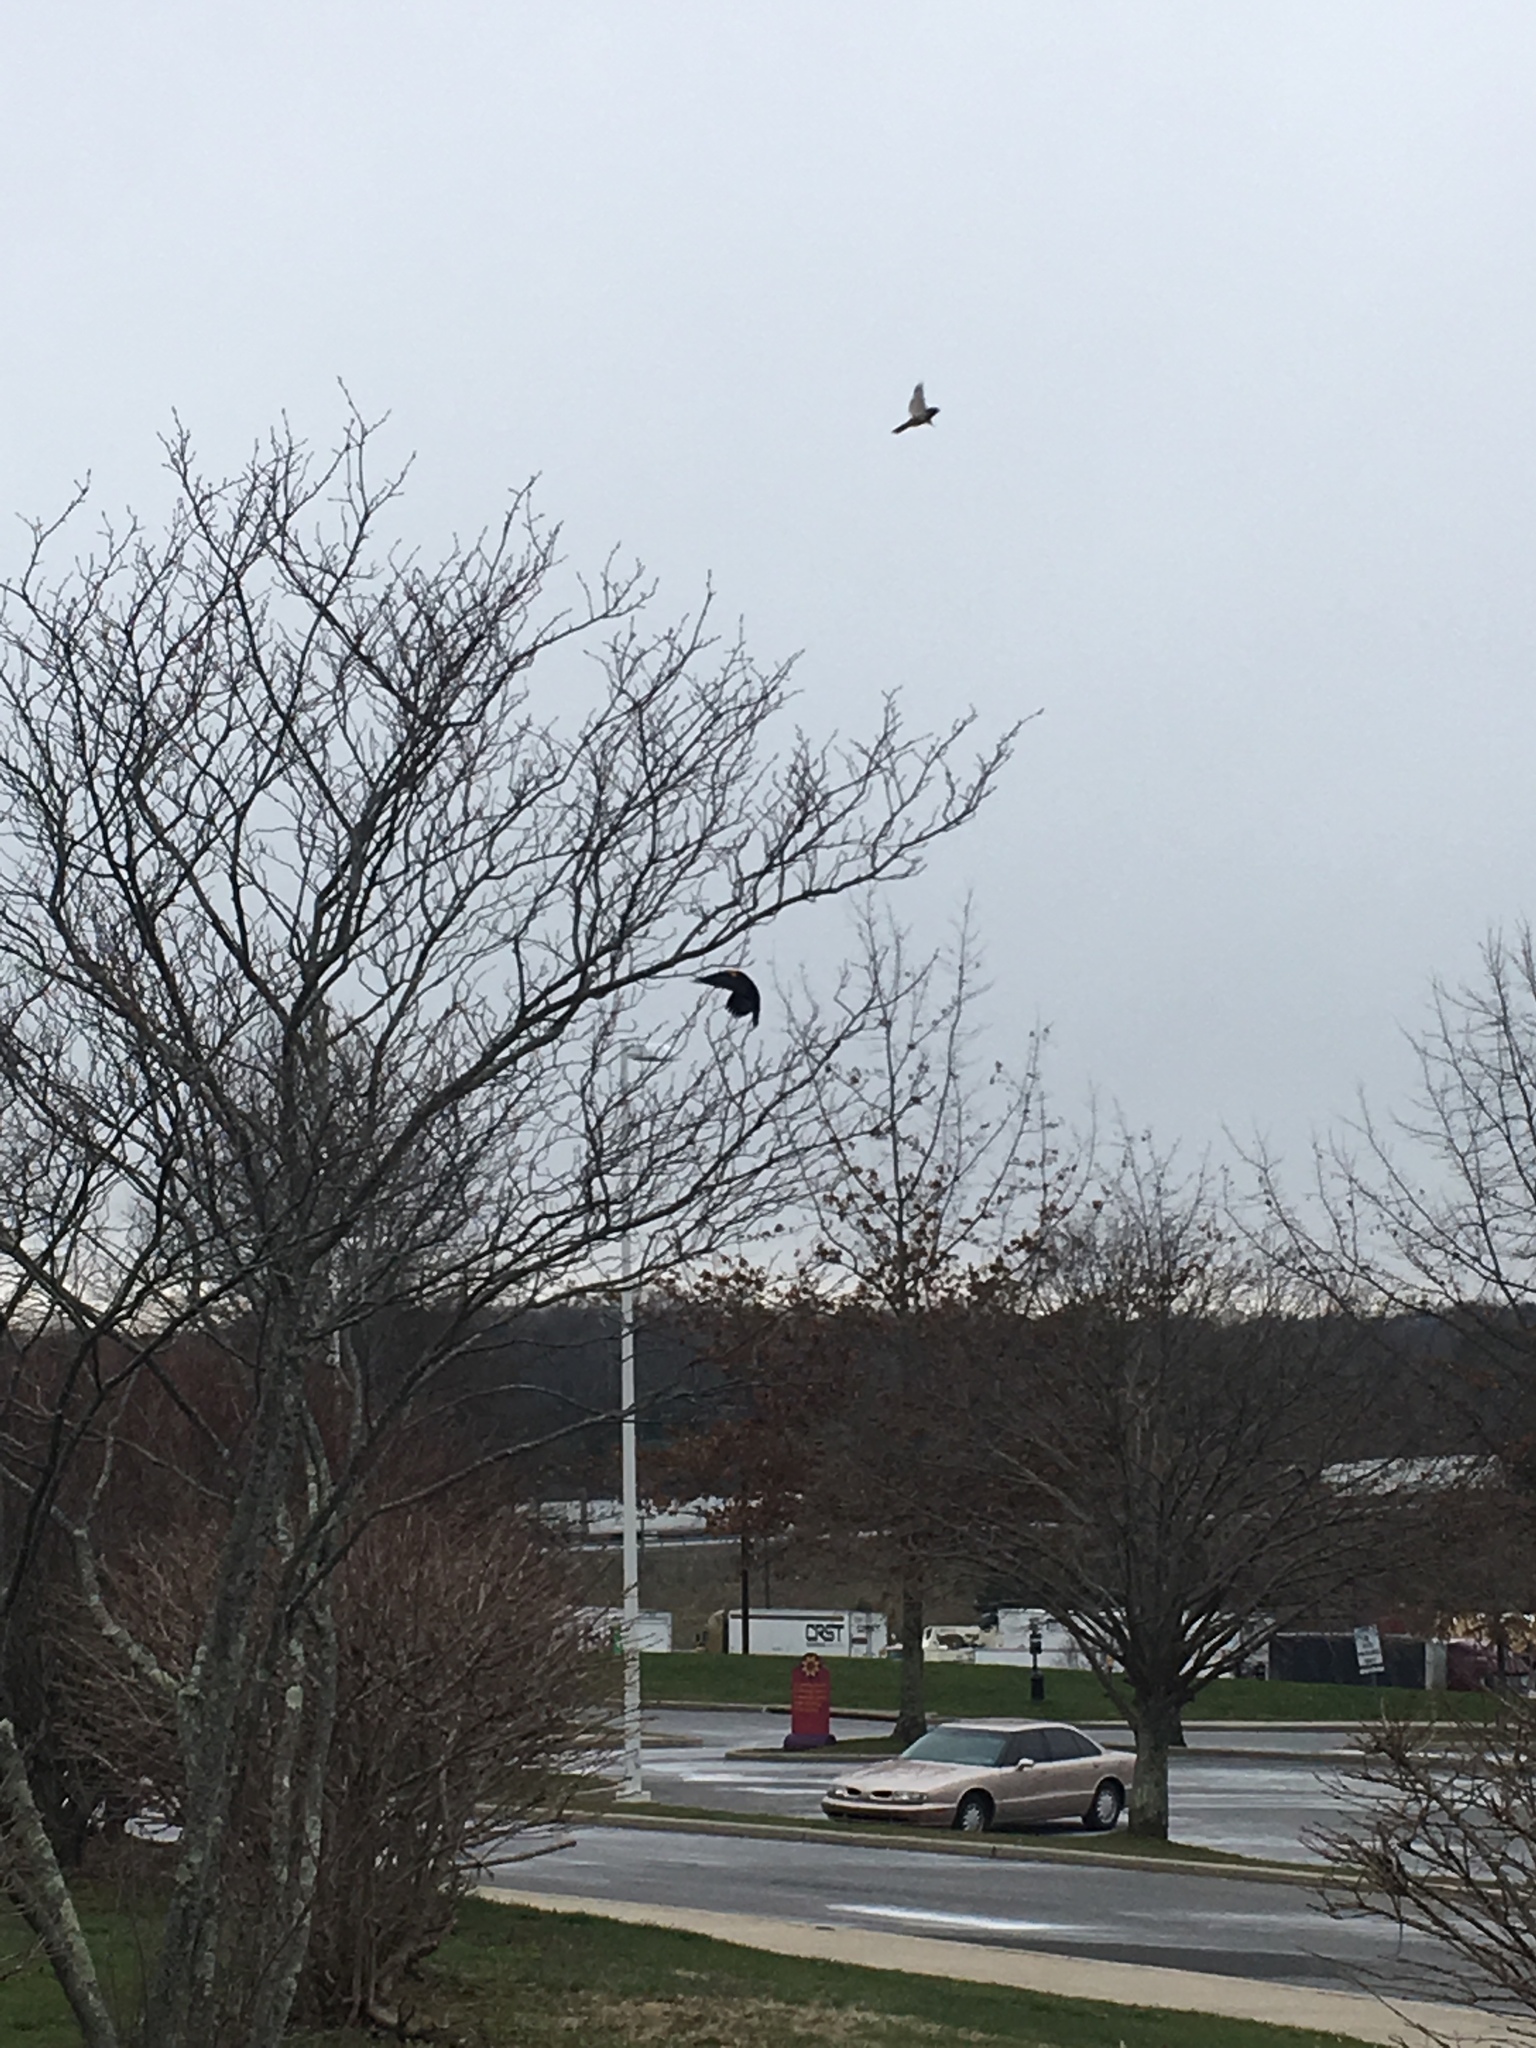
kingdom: Animalia
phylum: Chordata
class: Aves
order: Passeriformes
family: Icteridae
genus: Agelaius
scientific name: Agelaius phoeniceus
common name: Red-winged blackbird
